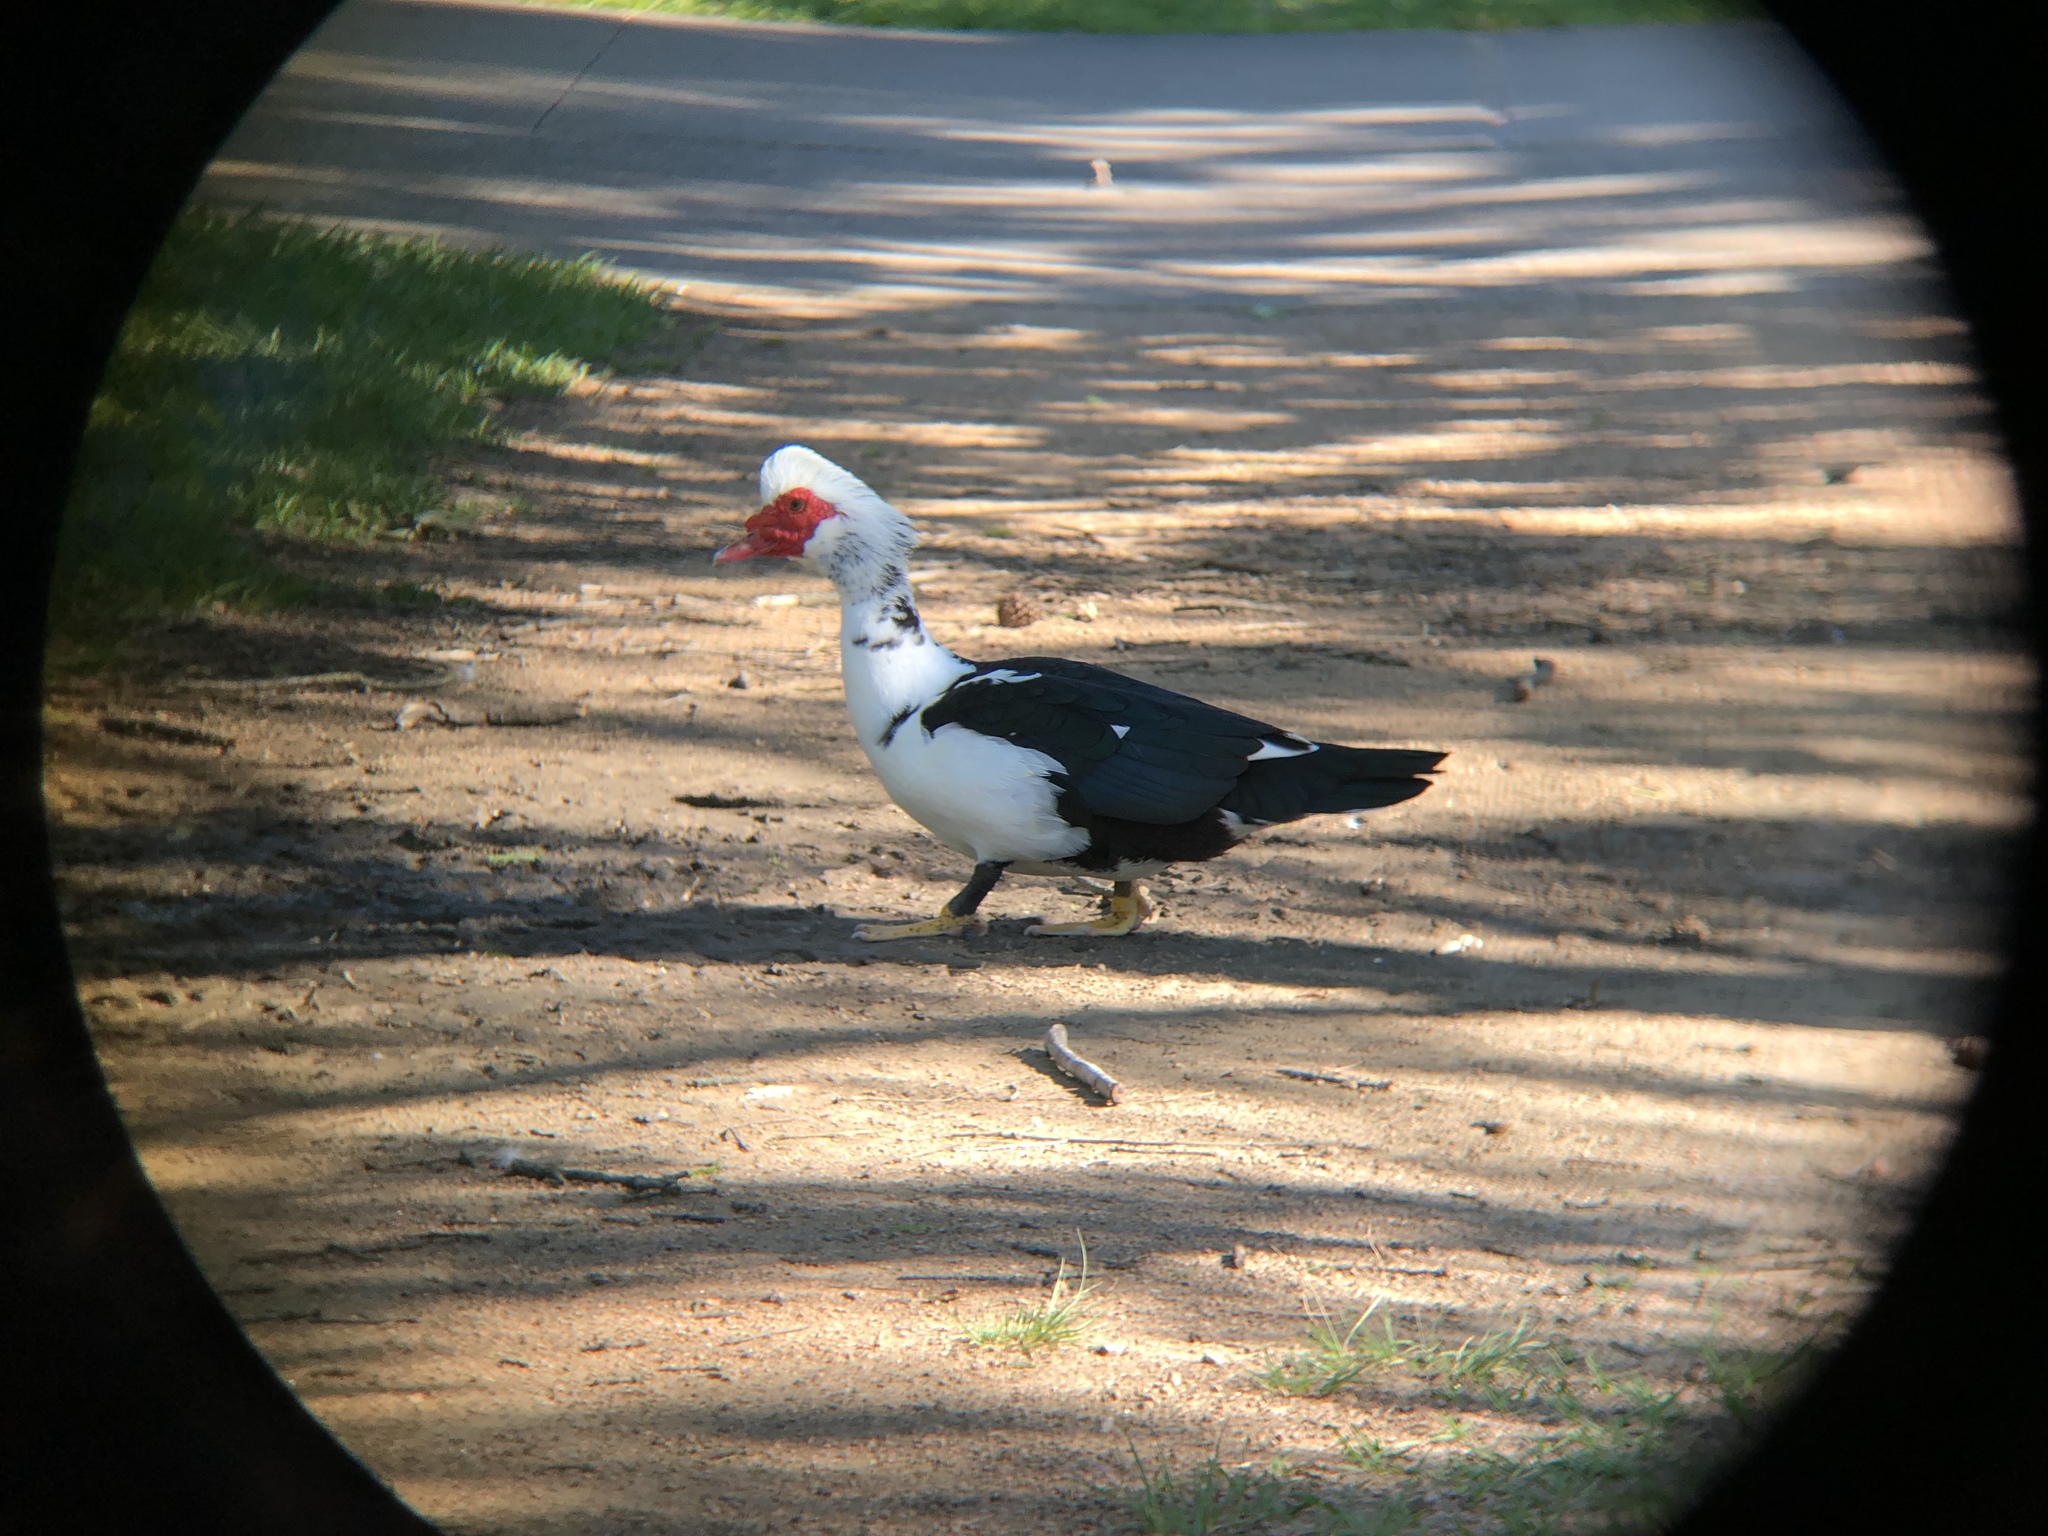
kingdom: Animalia
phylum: Chordata
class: Aves
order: Anseriformes
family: Anatidae
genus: Cairina
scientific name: Cairina moschata
